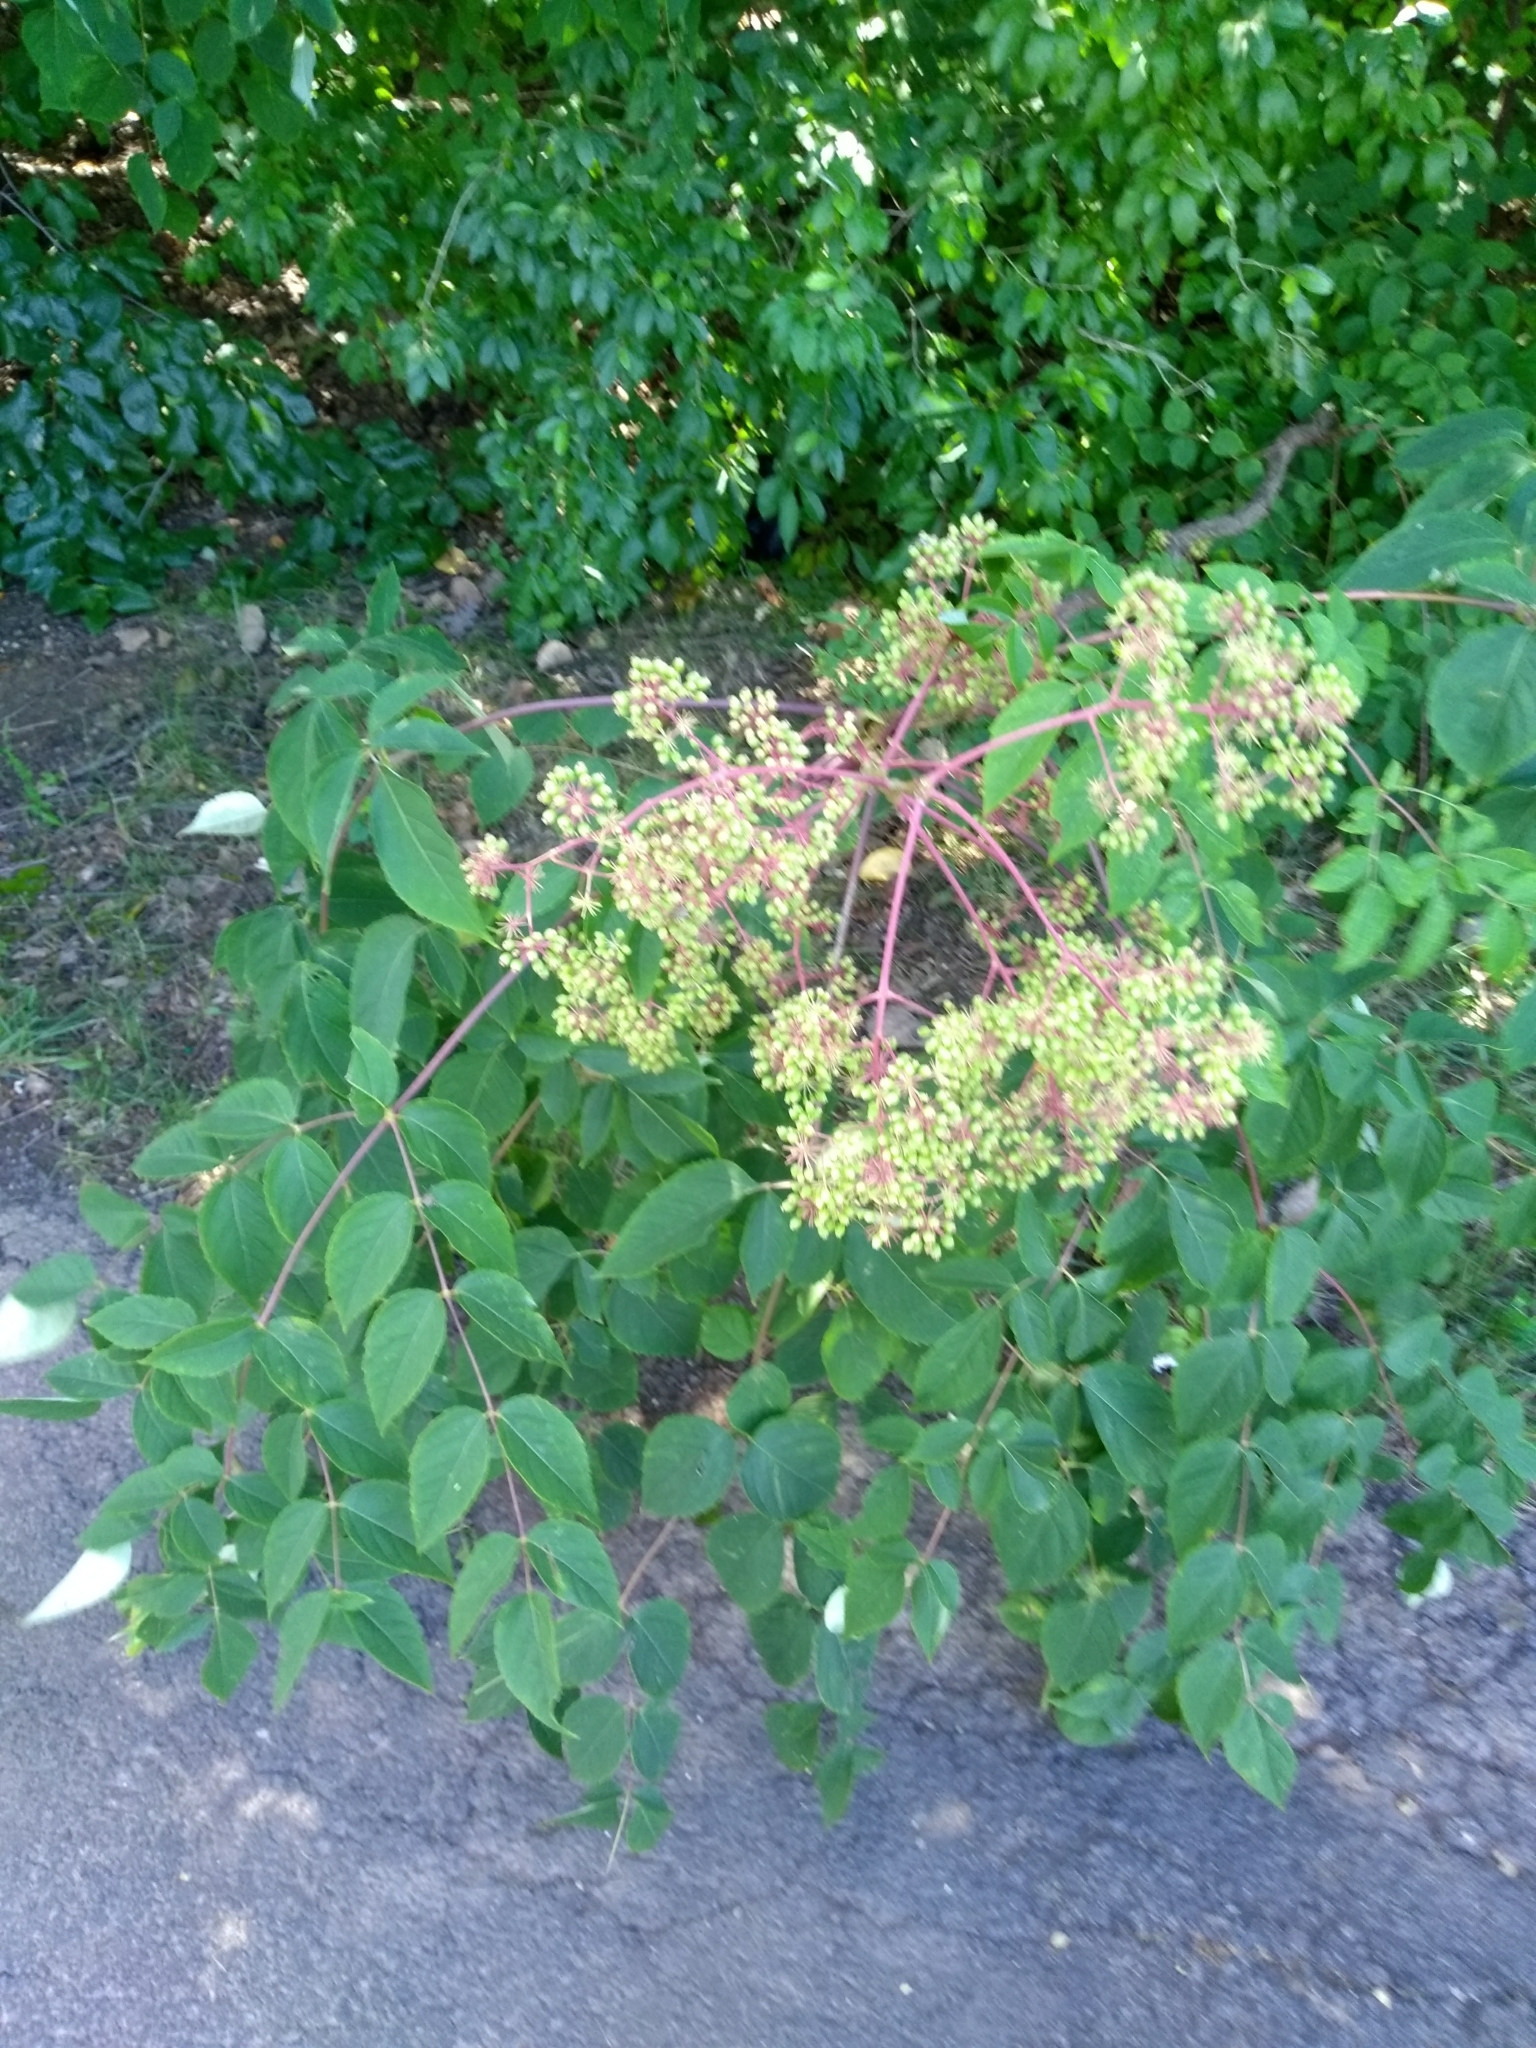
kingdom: Plantae
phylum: Tracheophyta
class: Magnoliopsida
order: Apiales
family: Araliaceae
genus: Aralia
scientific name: Aralia spinosa
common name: Hercules'-club
